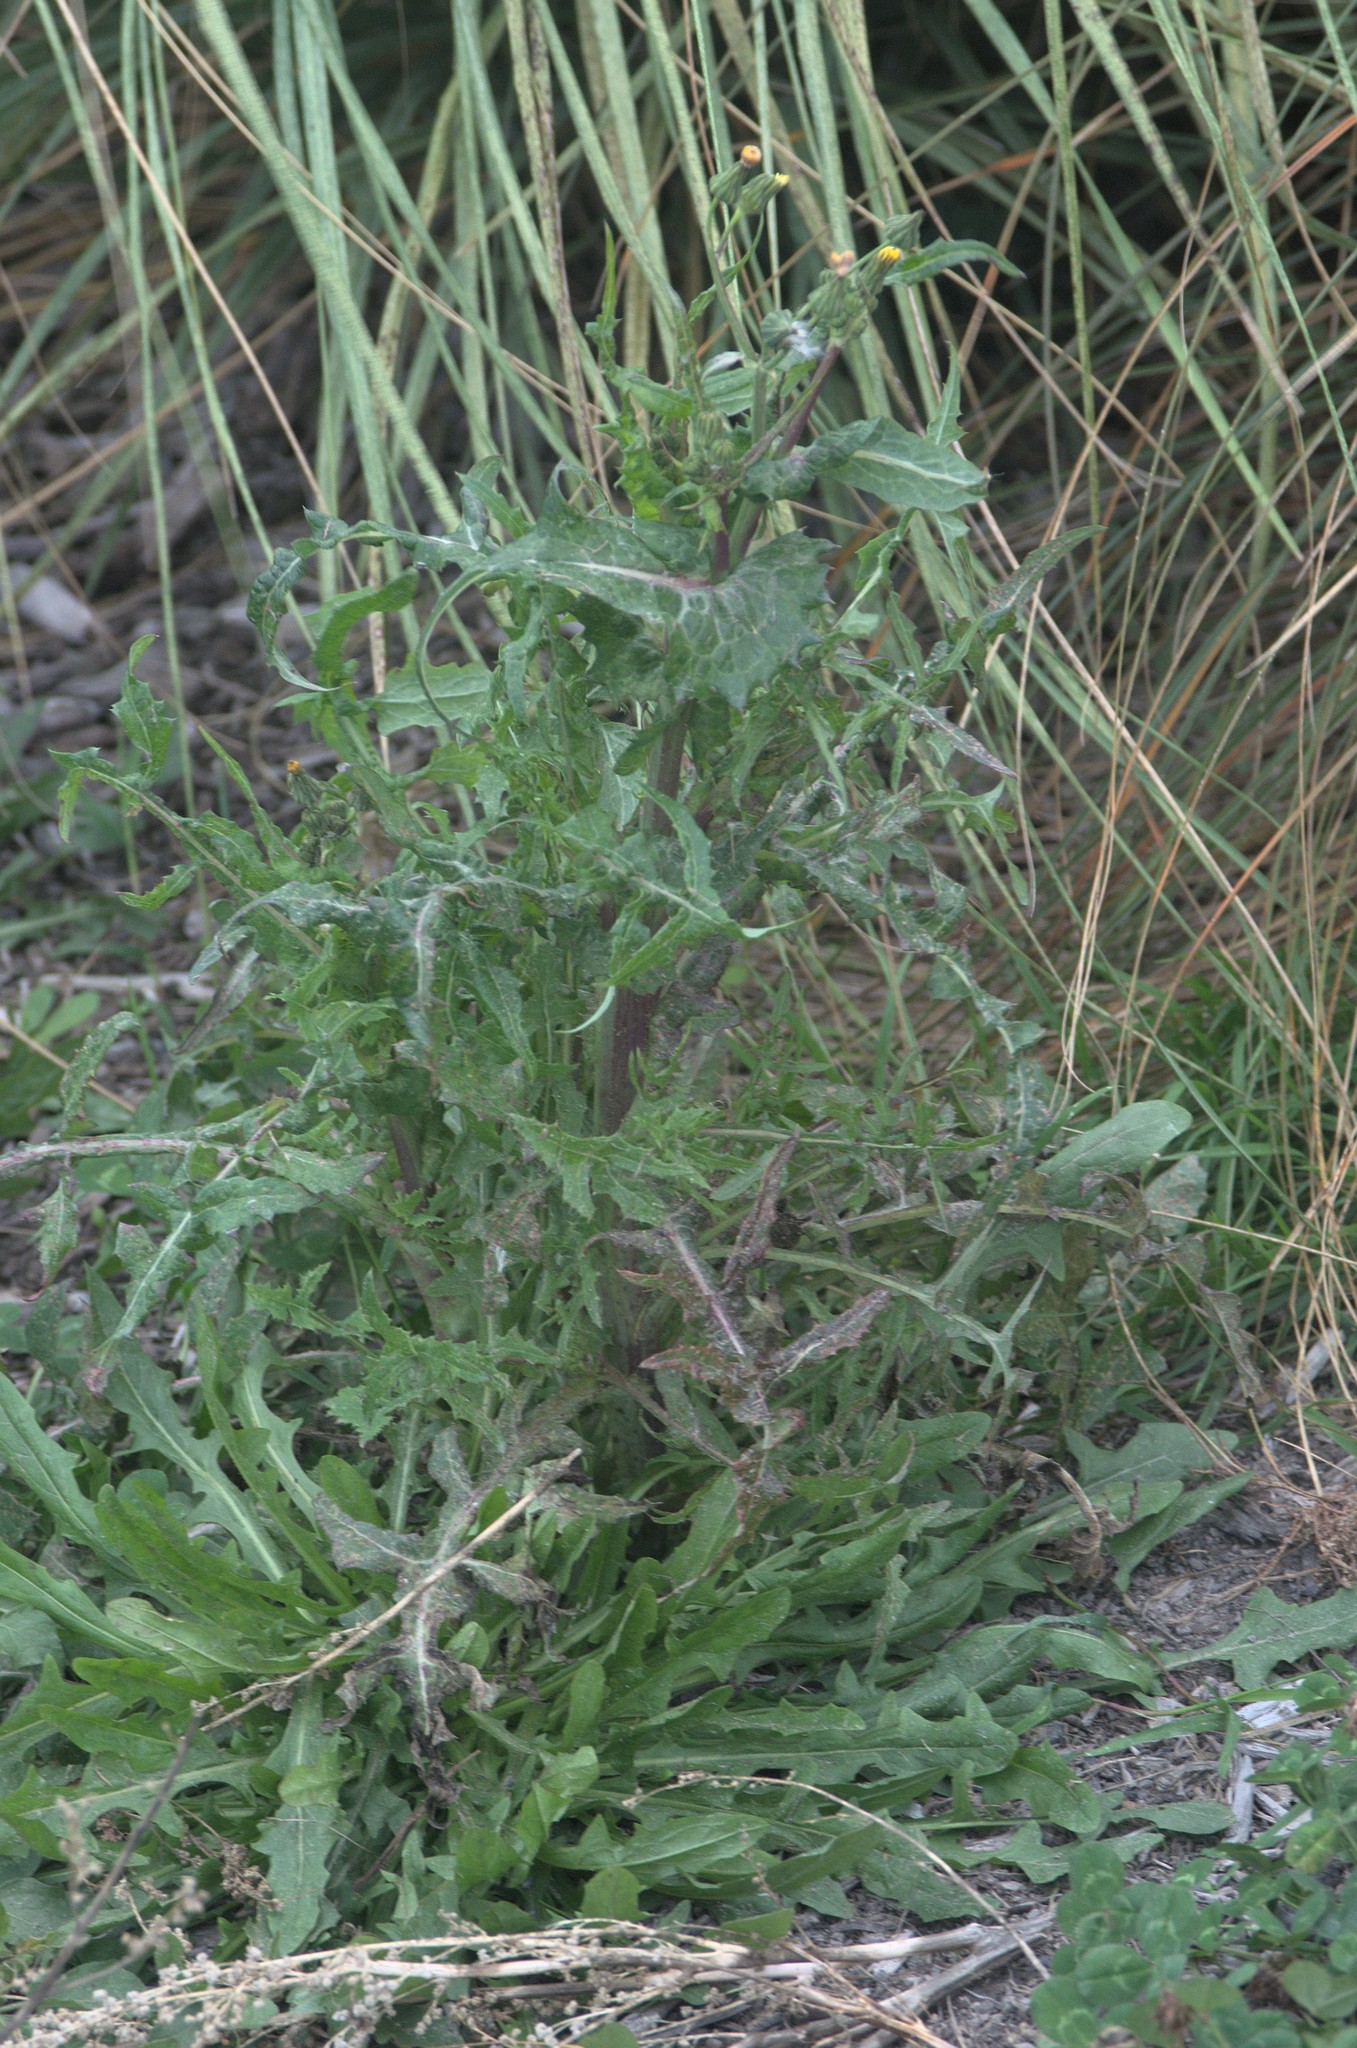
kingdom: Plantae
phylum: Tracheophyta
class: Magnoliopsida
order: Asterales
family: Asteraceae
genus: Sonchus
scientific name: Sonchus oleraceus
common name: Common sowthistle
